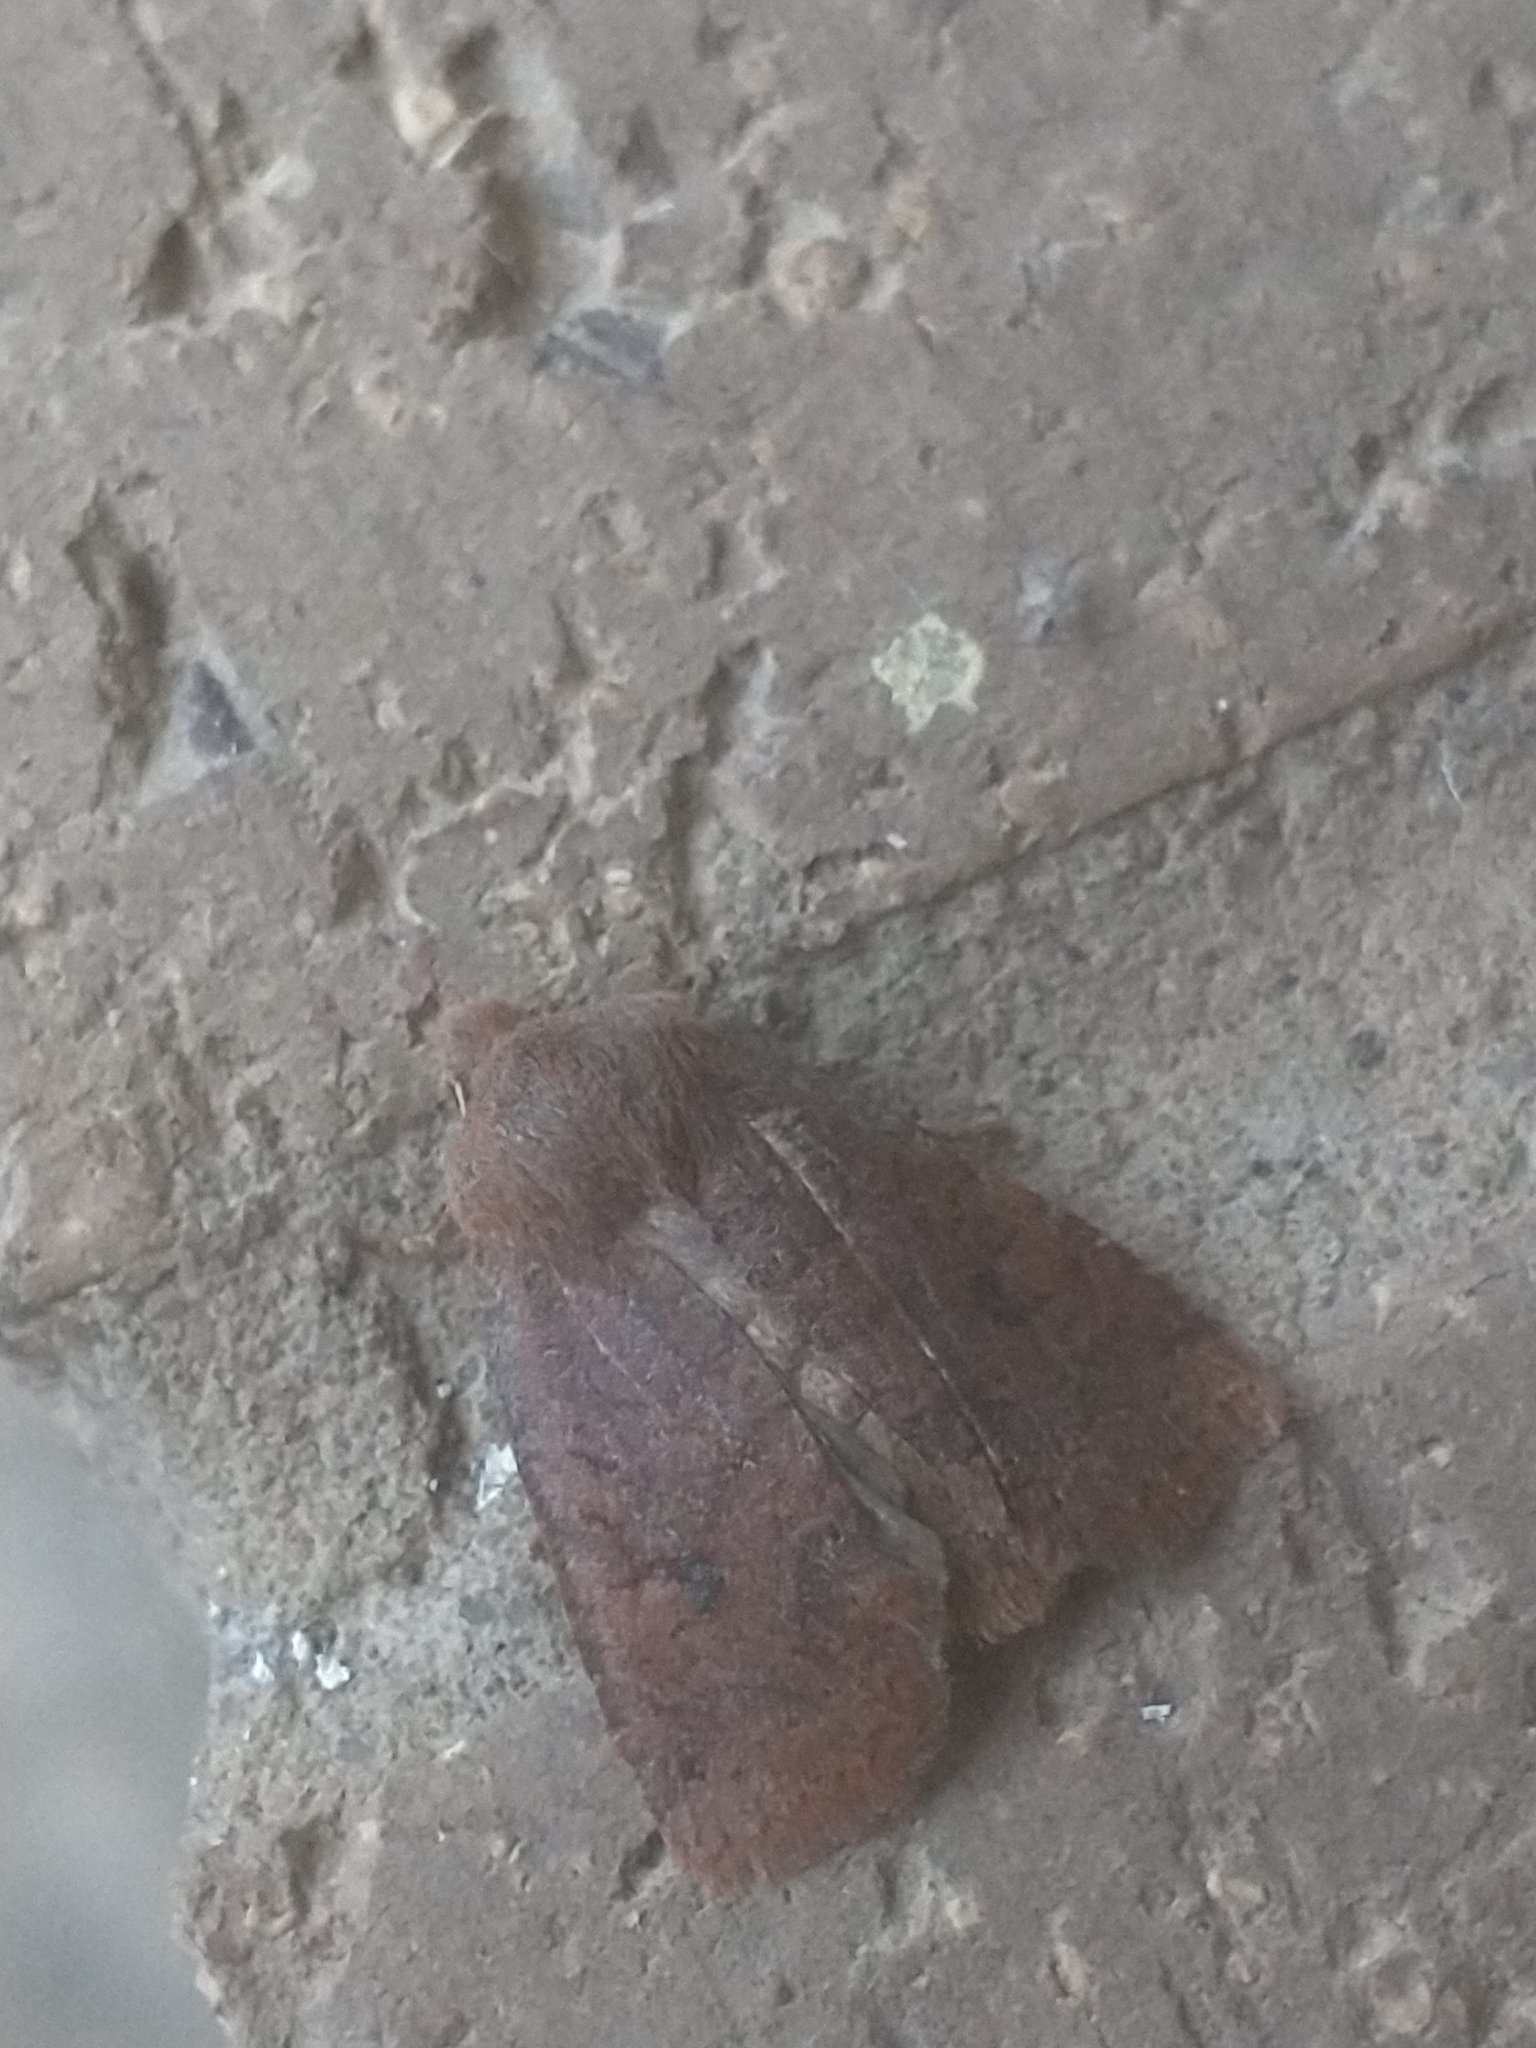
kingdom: Animalia
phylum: Arthropoda
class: Insecta
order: Lepidoptera
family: Noctuidae
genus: Conistra
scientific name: Conistra vaccinii
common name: Chestnut
